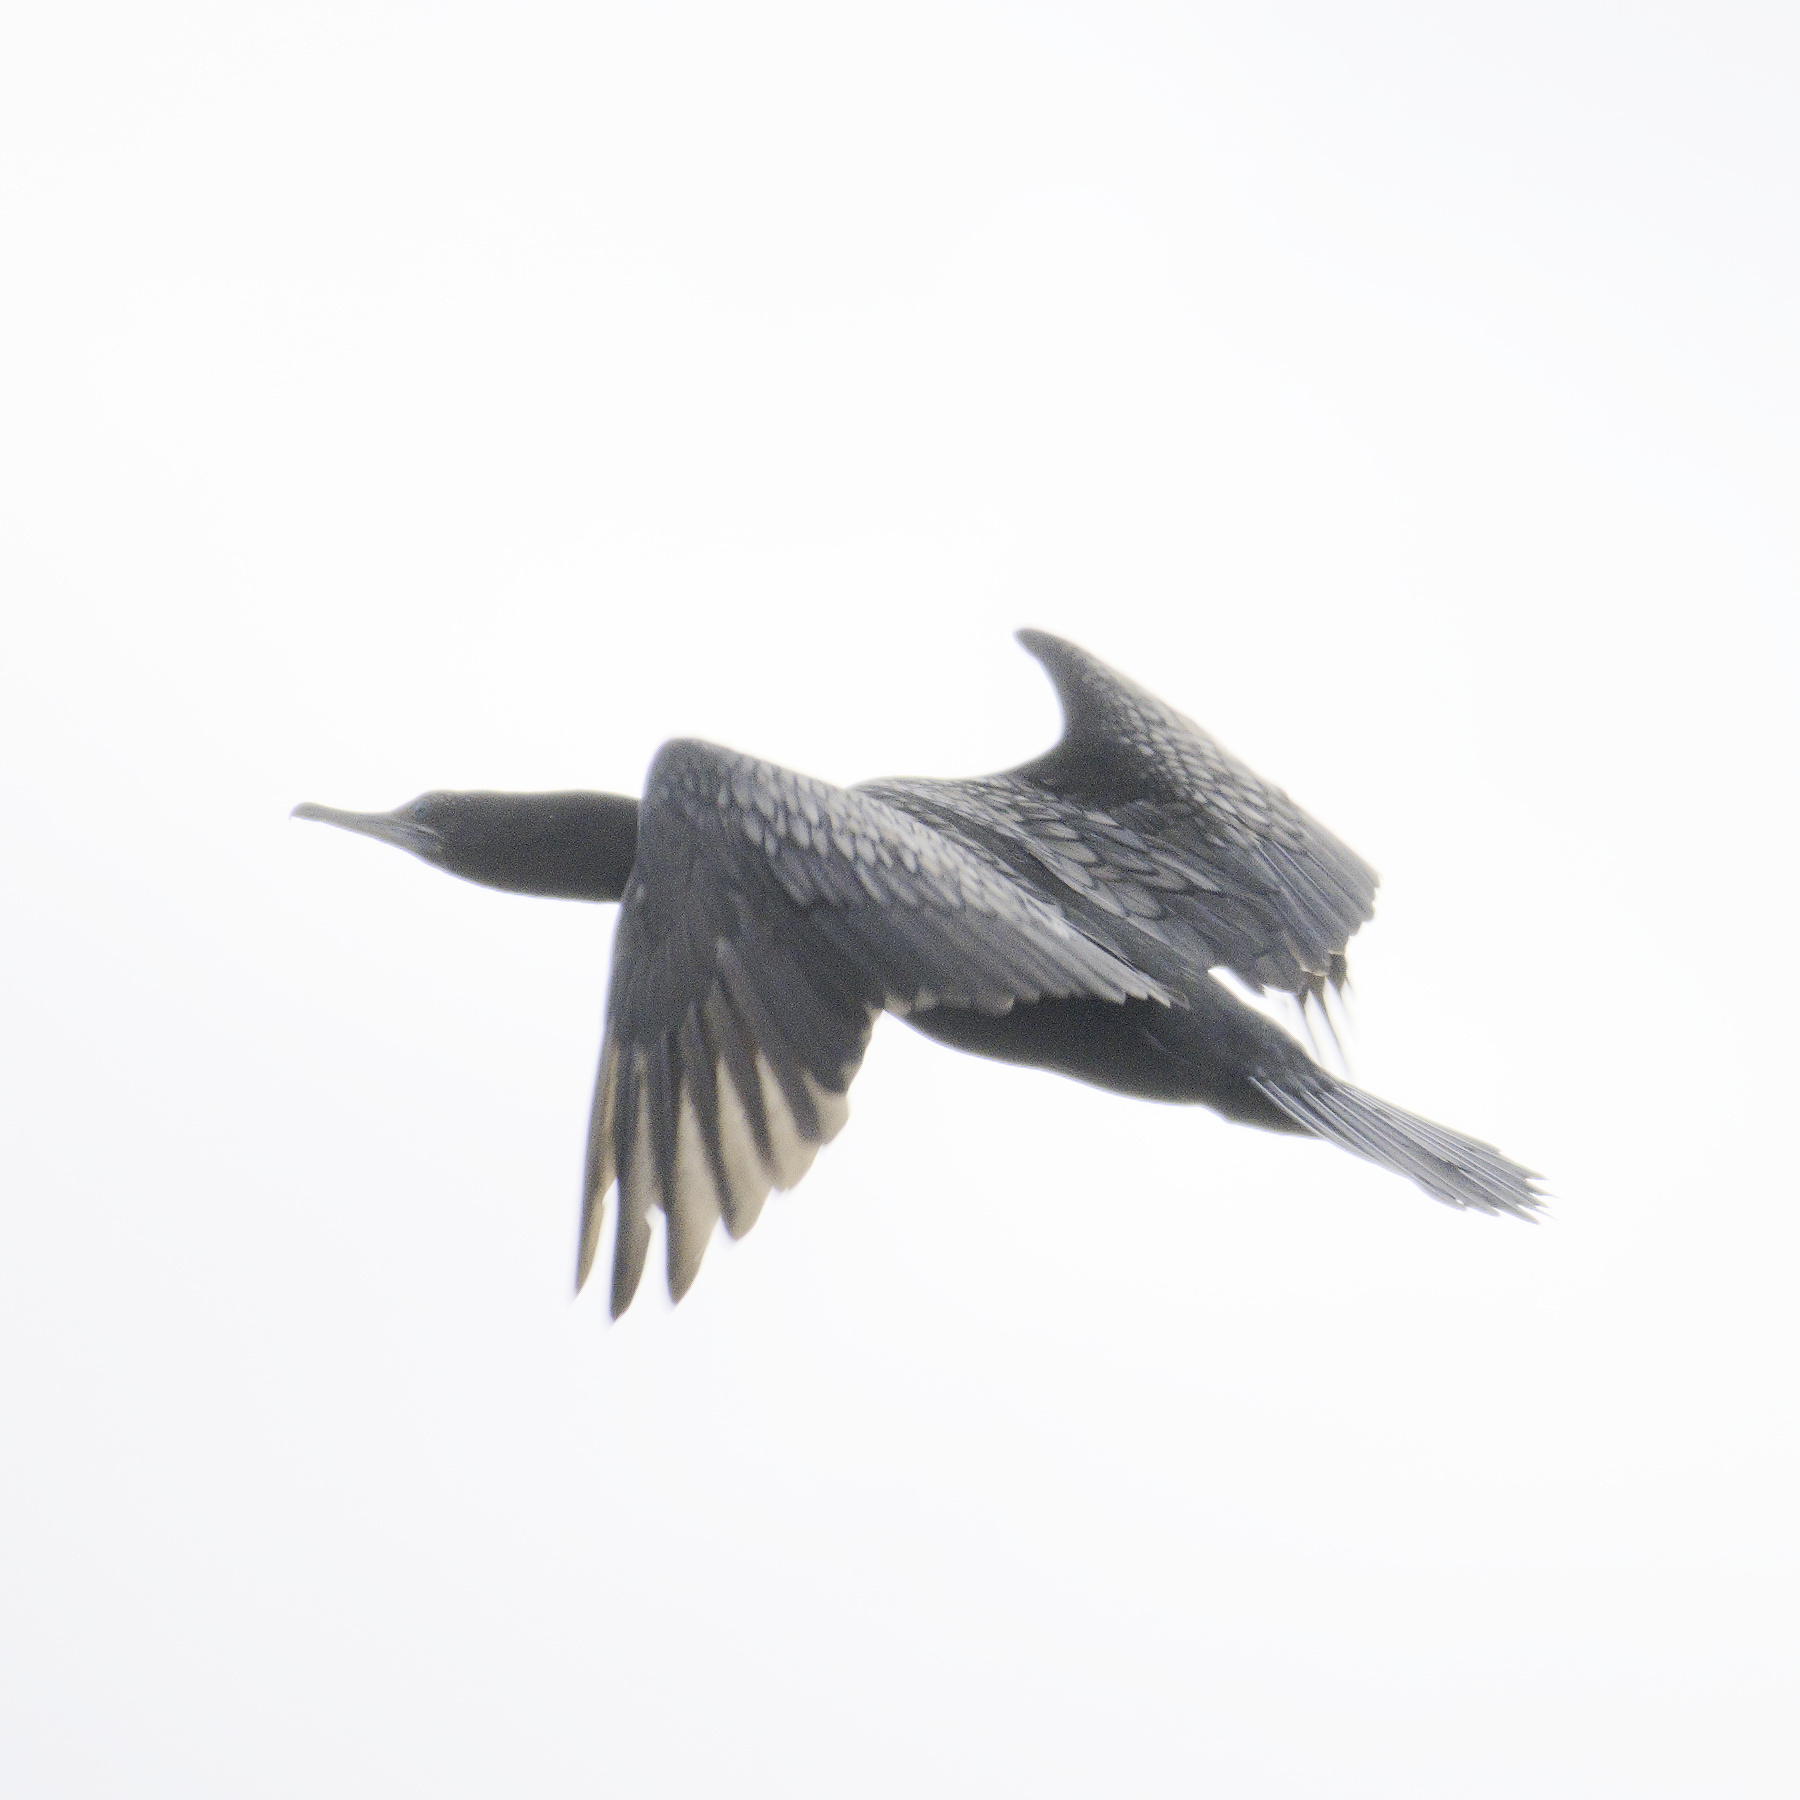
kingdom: Animalia
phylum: Chordata
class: Aves
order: Suliformes
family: Phalacrocoracidae
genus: Phalacrocorax
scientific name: Phalacrocorax sulcirostris
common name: Little black cormorant
